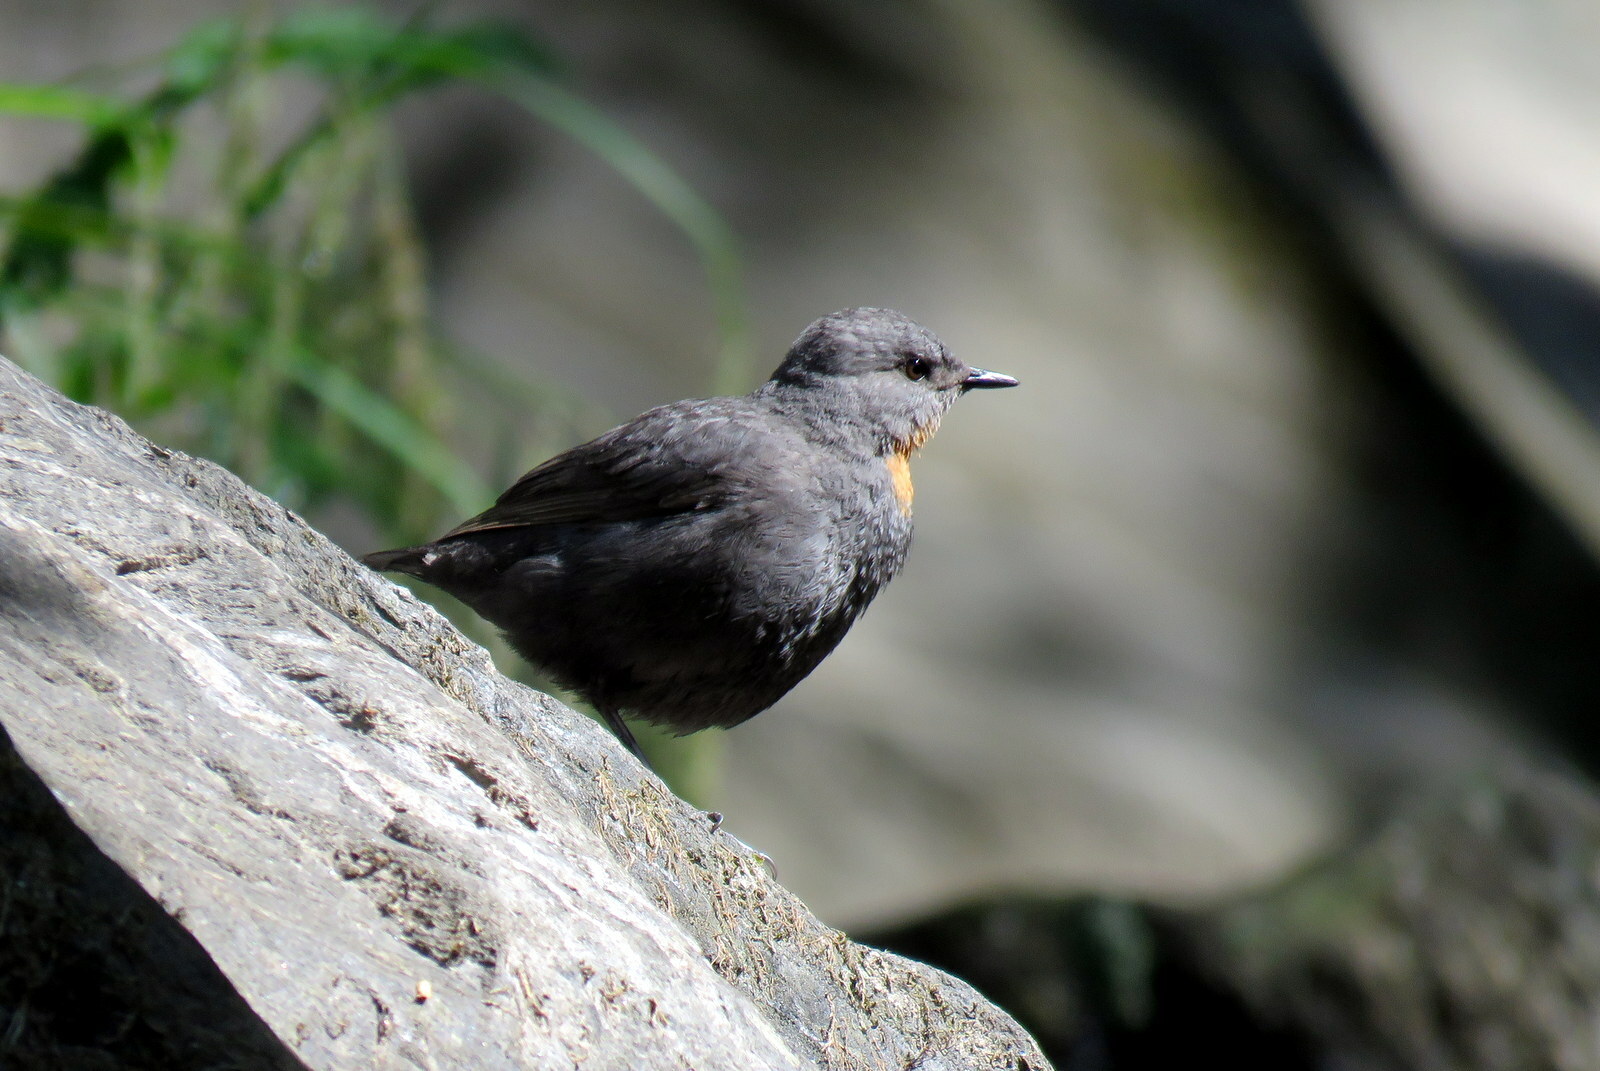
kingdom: Animalia
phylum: Chordata
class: Aves
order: Passeriformes
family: Cinclidae
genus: Cinclus
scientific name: Cinclus schulzii
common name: Rufous-throated dipper
